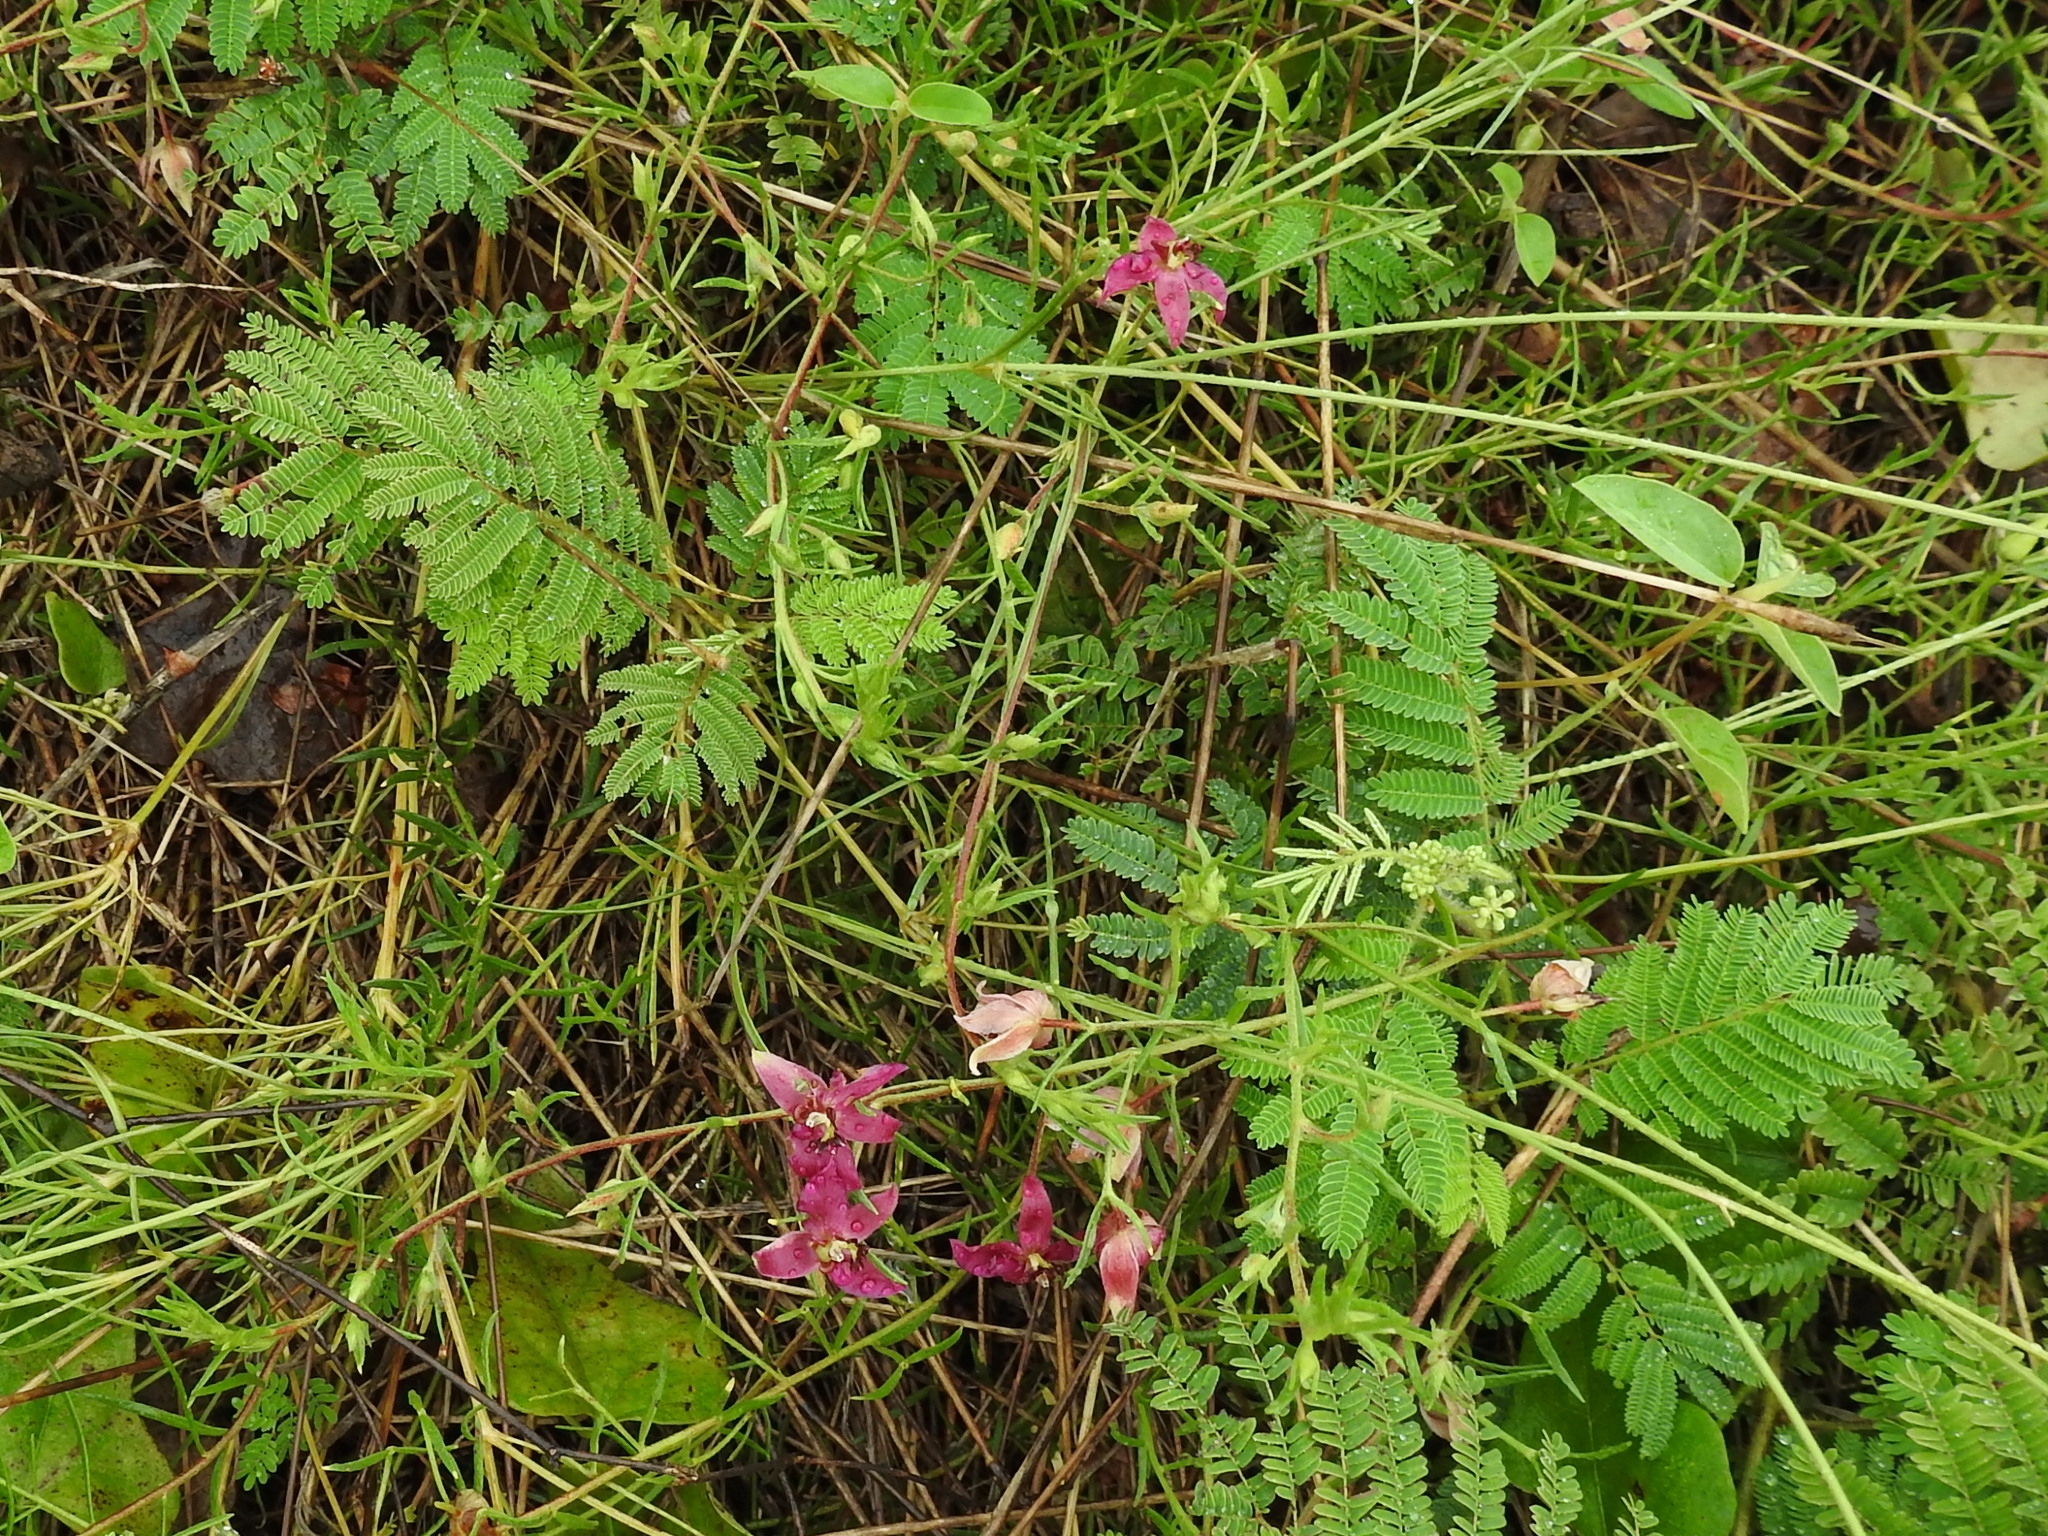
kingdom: Plantae
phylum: Tracheophyta
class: Magnoliopsida
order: Zygophyllales
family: Krameriaceae
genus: Krameria
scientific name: Krameria lanceolata
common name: Ratany
